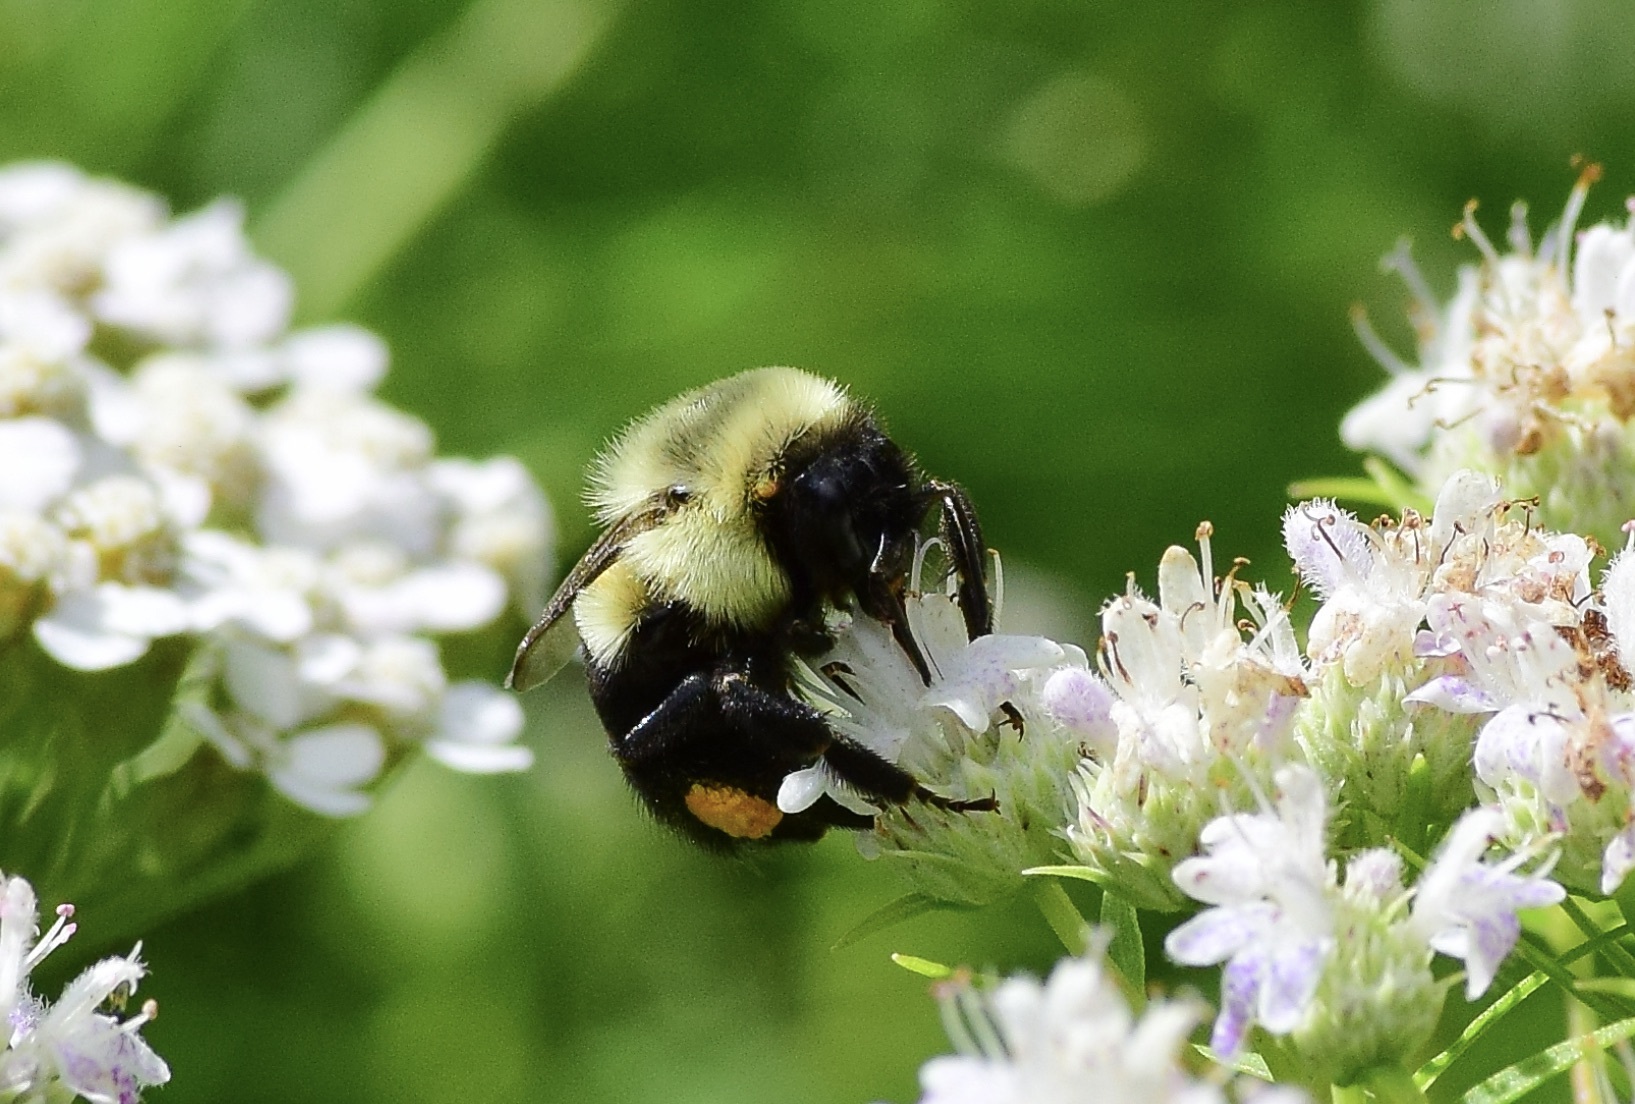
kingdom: Animalia
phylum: Arthropoda
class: Insecta
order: Hymenoptera
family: Apidae
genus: Bombus
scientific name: Bombus impatiens
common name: Common eastern bumble bee
